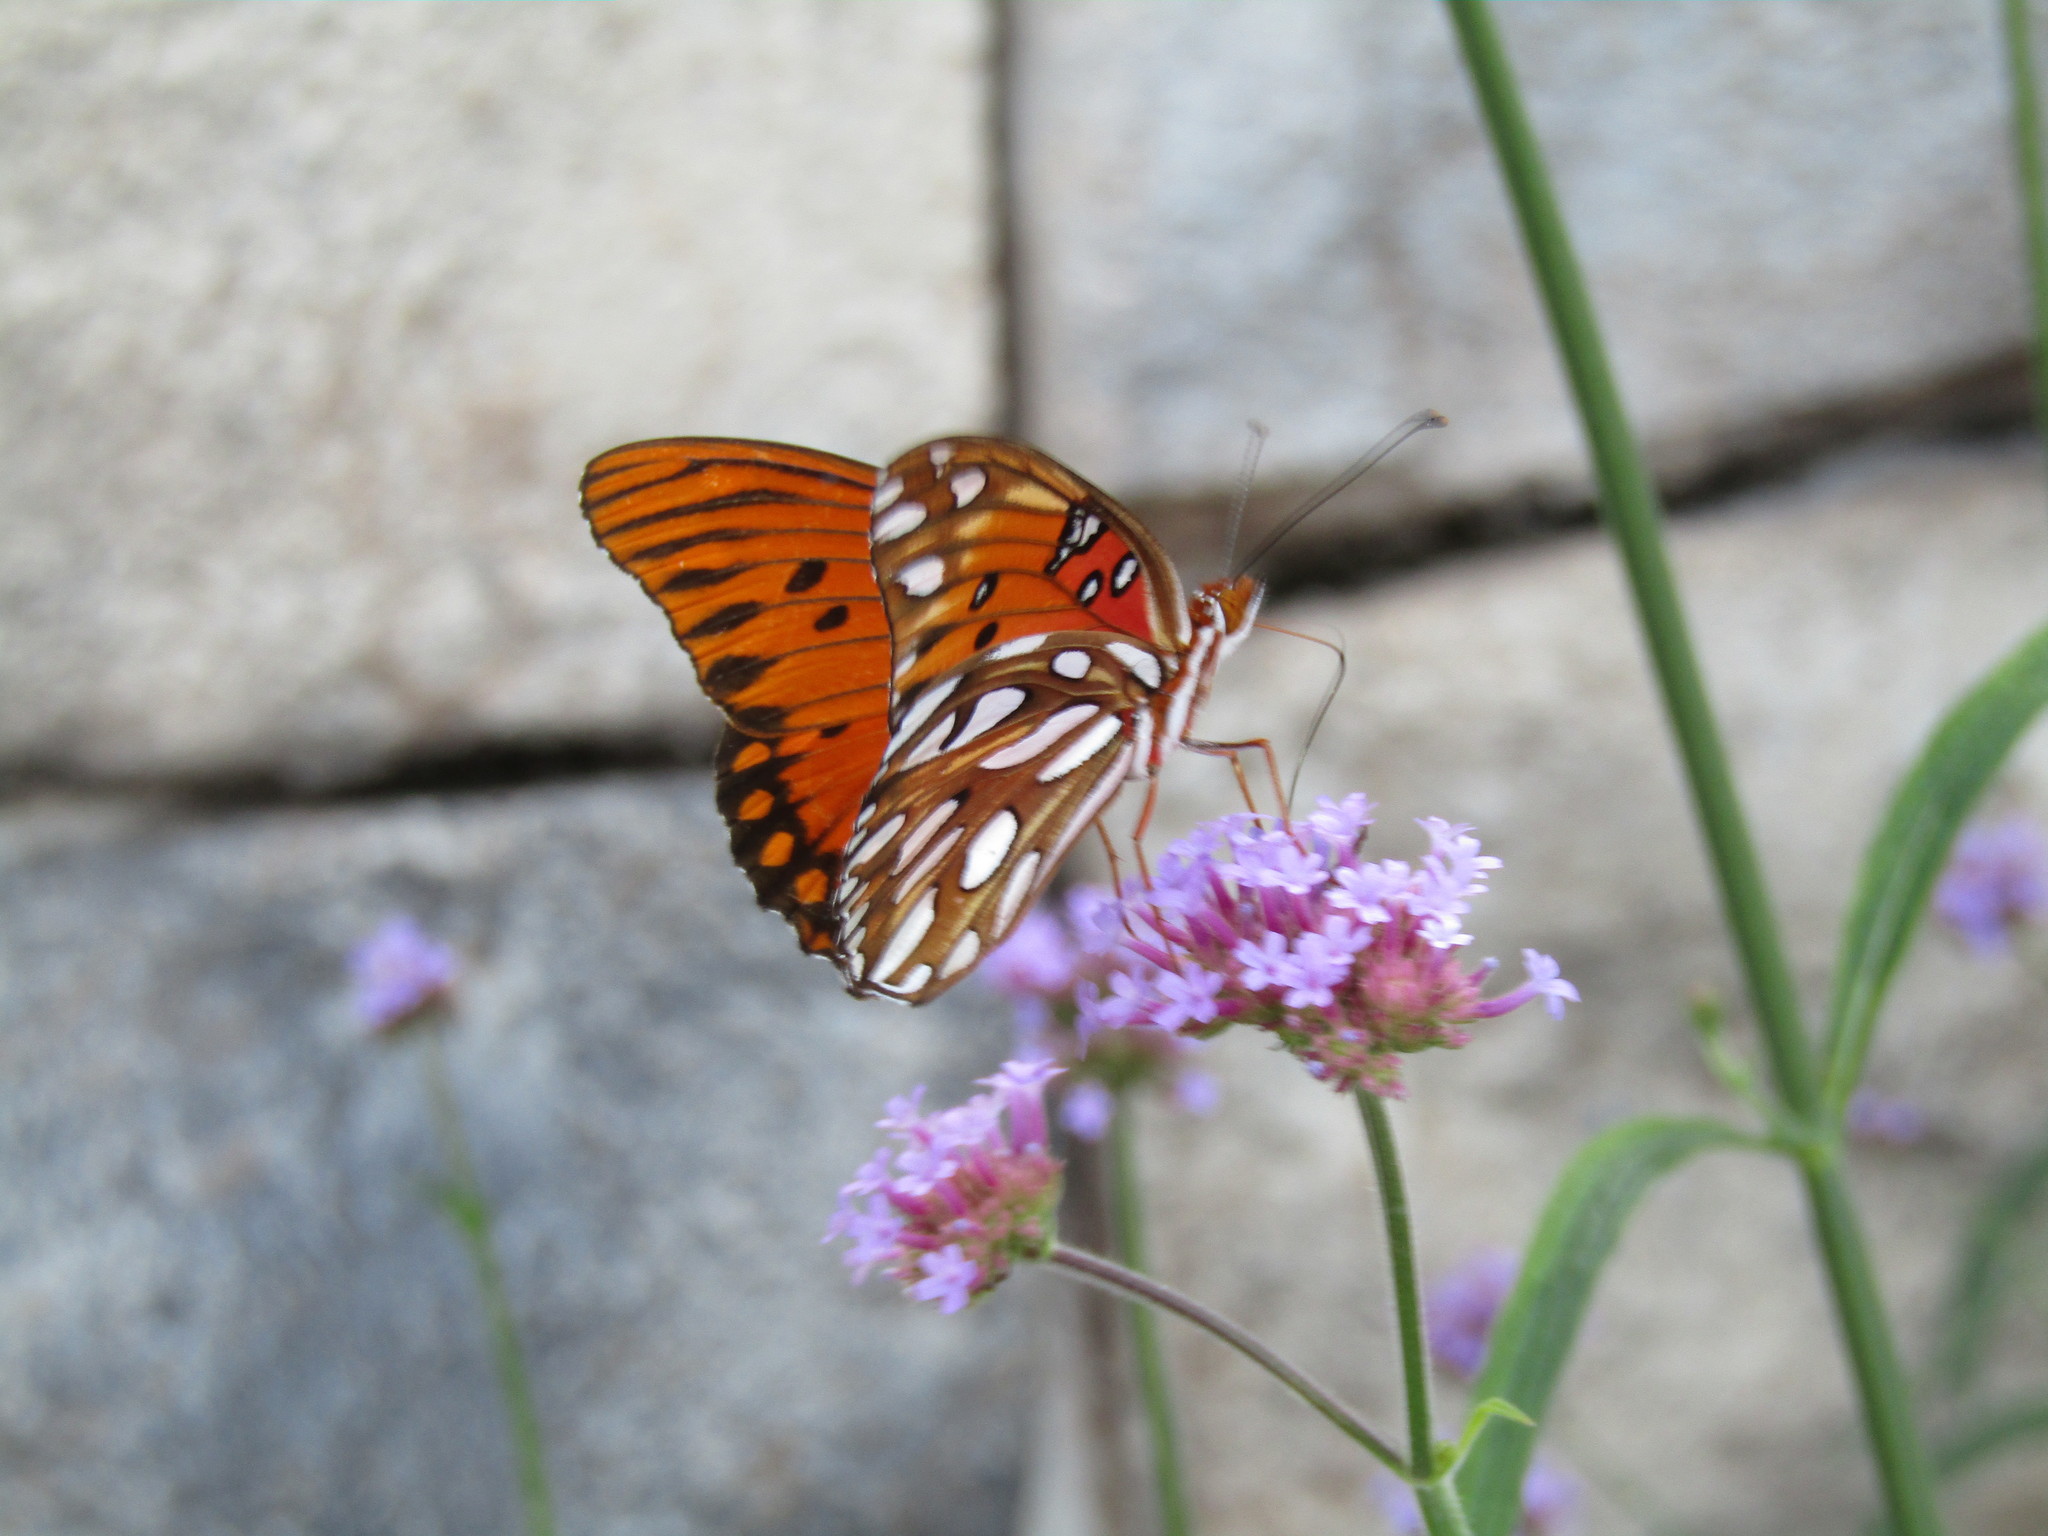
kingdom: Animalia
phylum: Arthropoda
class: Insecta
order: Lepidoptera
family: Nymphalidae
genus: Dione
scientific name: Dione vanillae
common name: Gulf fritillary
